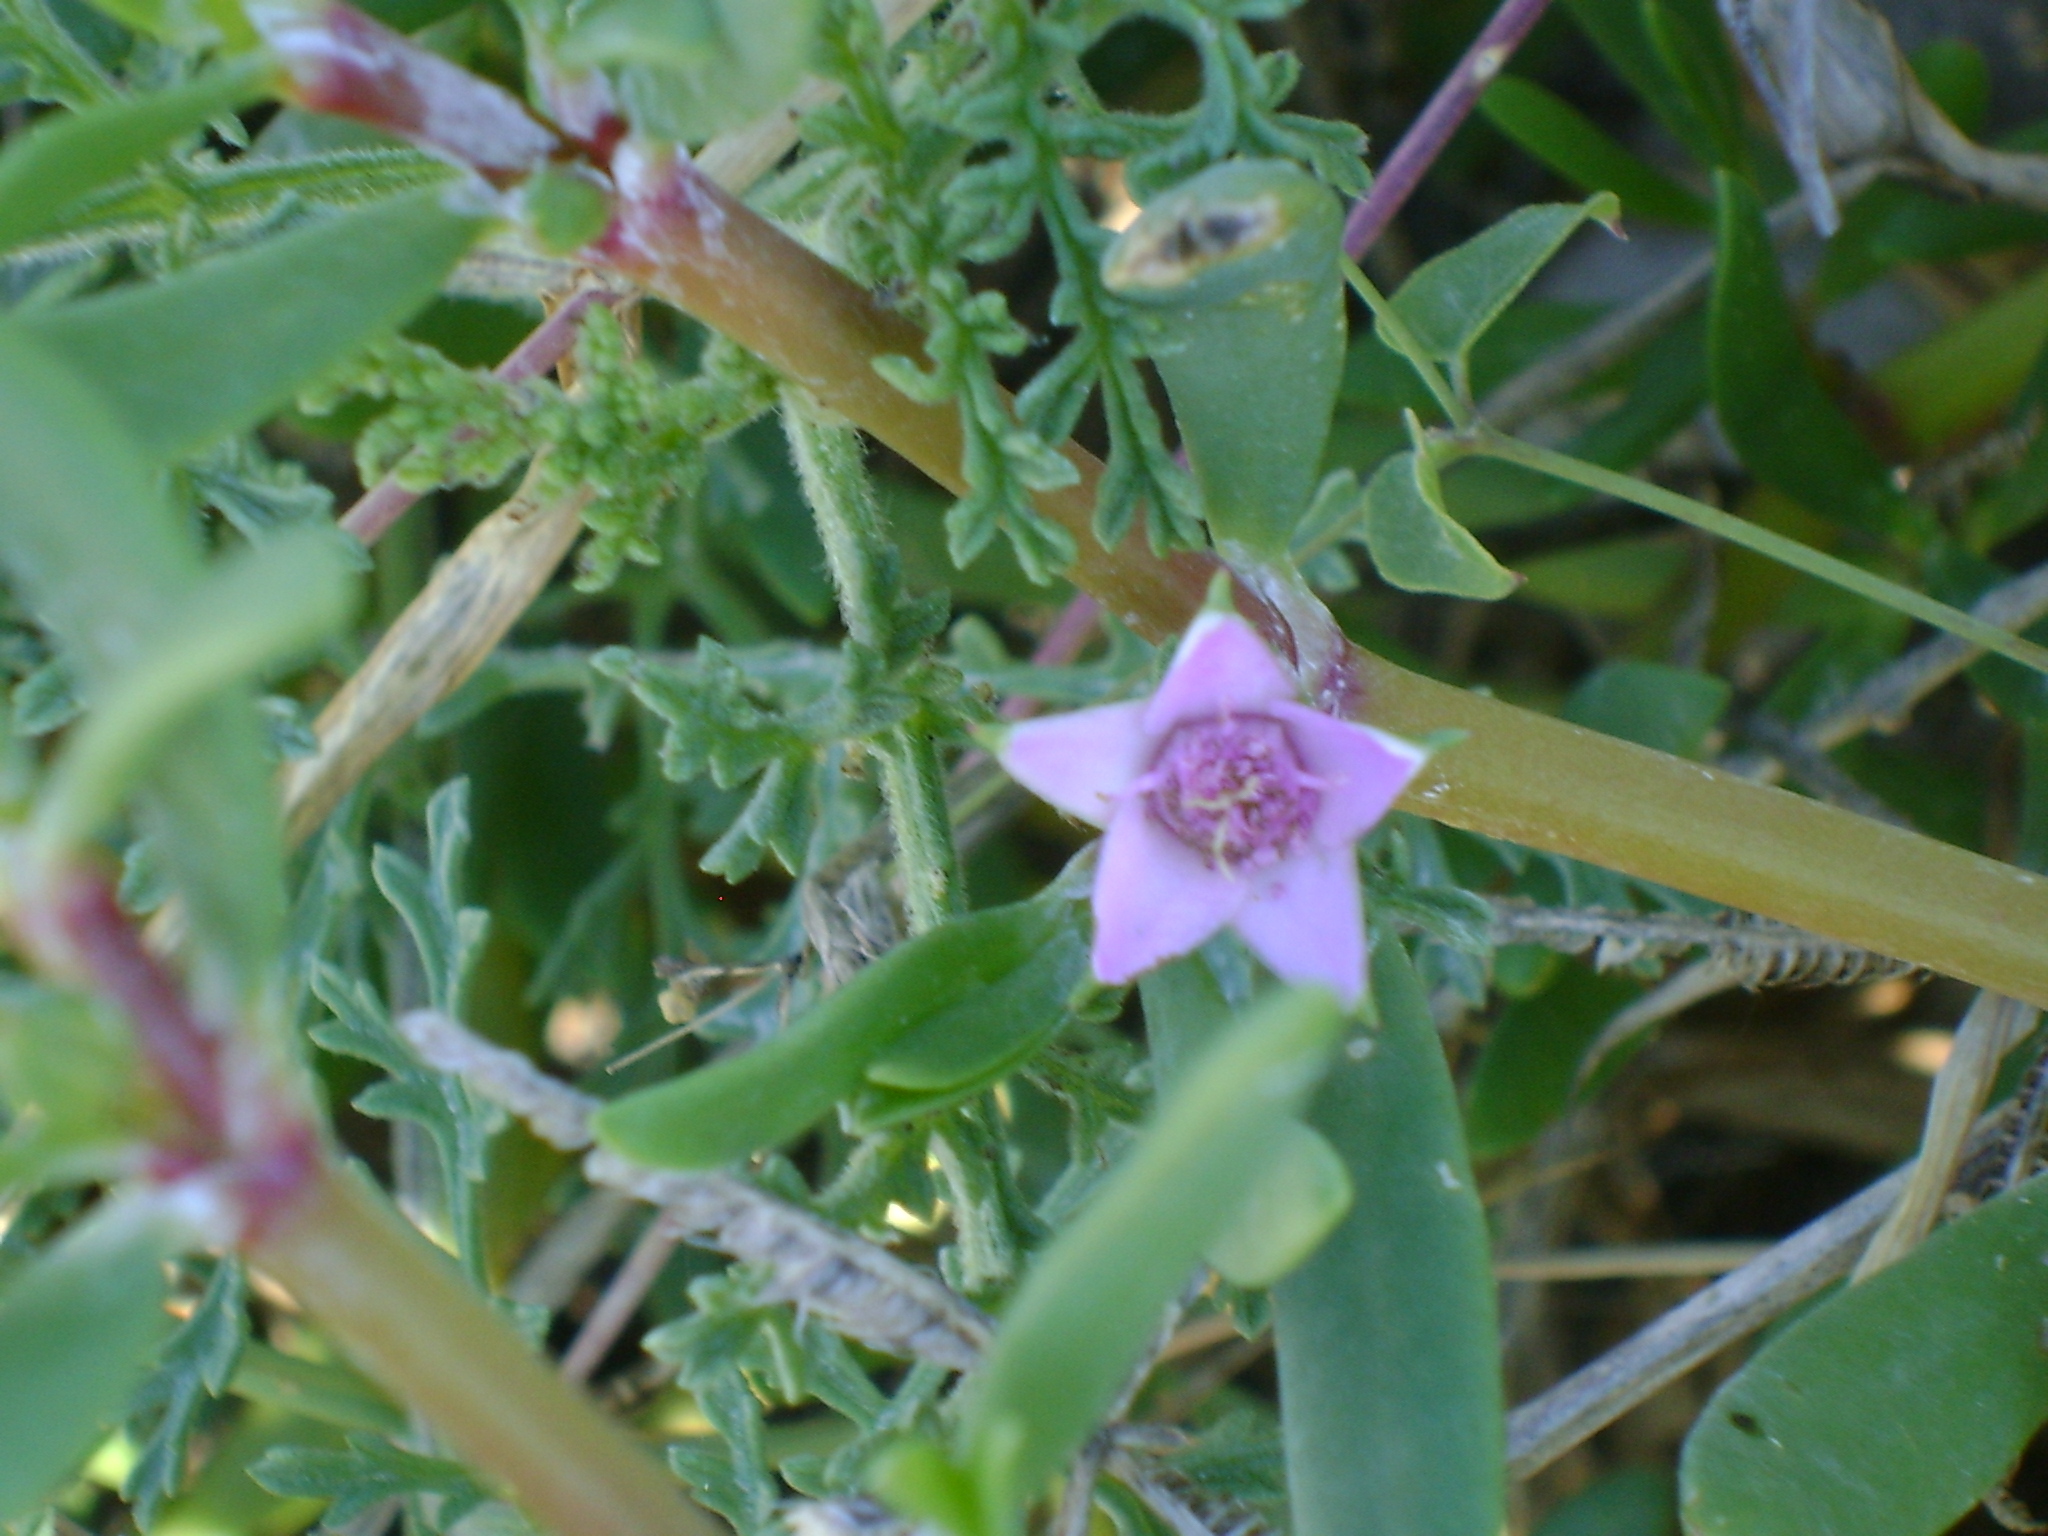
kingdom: Plantae
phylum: Tracheophyta
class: Magnoliopsida
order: Caryophyllales
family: Aizoaceae
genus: Sesuvium
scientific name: Sesuvium portulacastrum
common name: Sea-purslane
